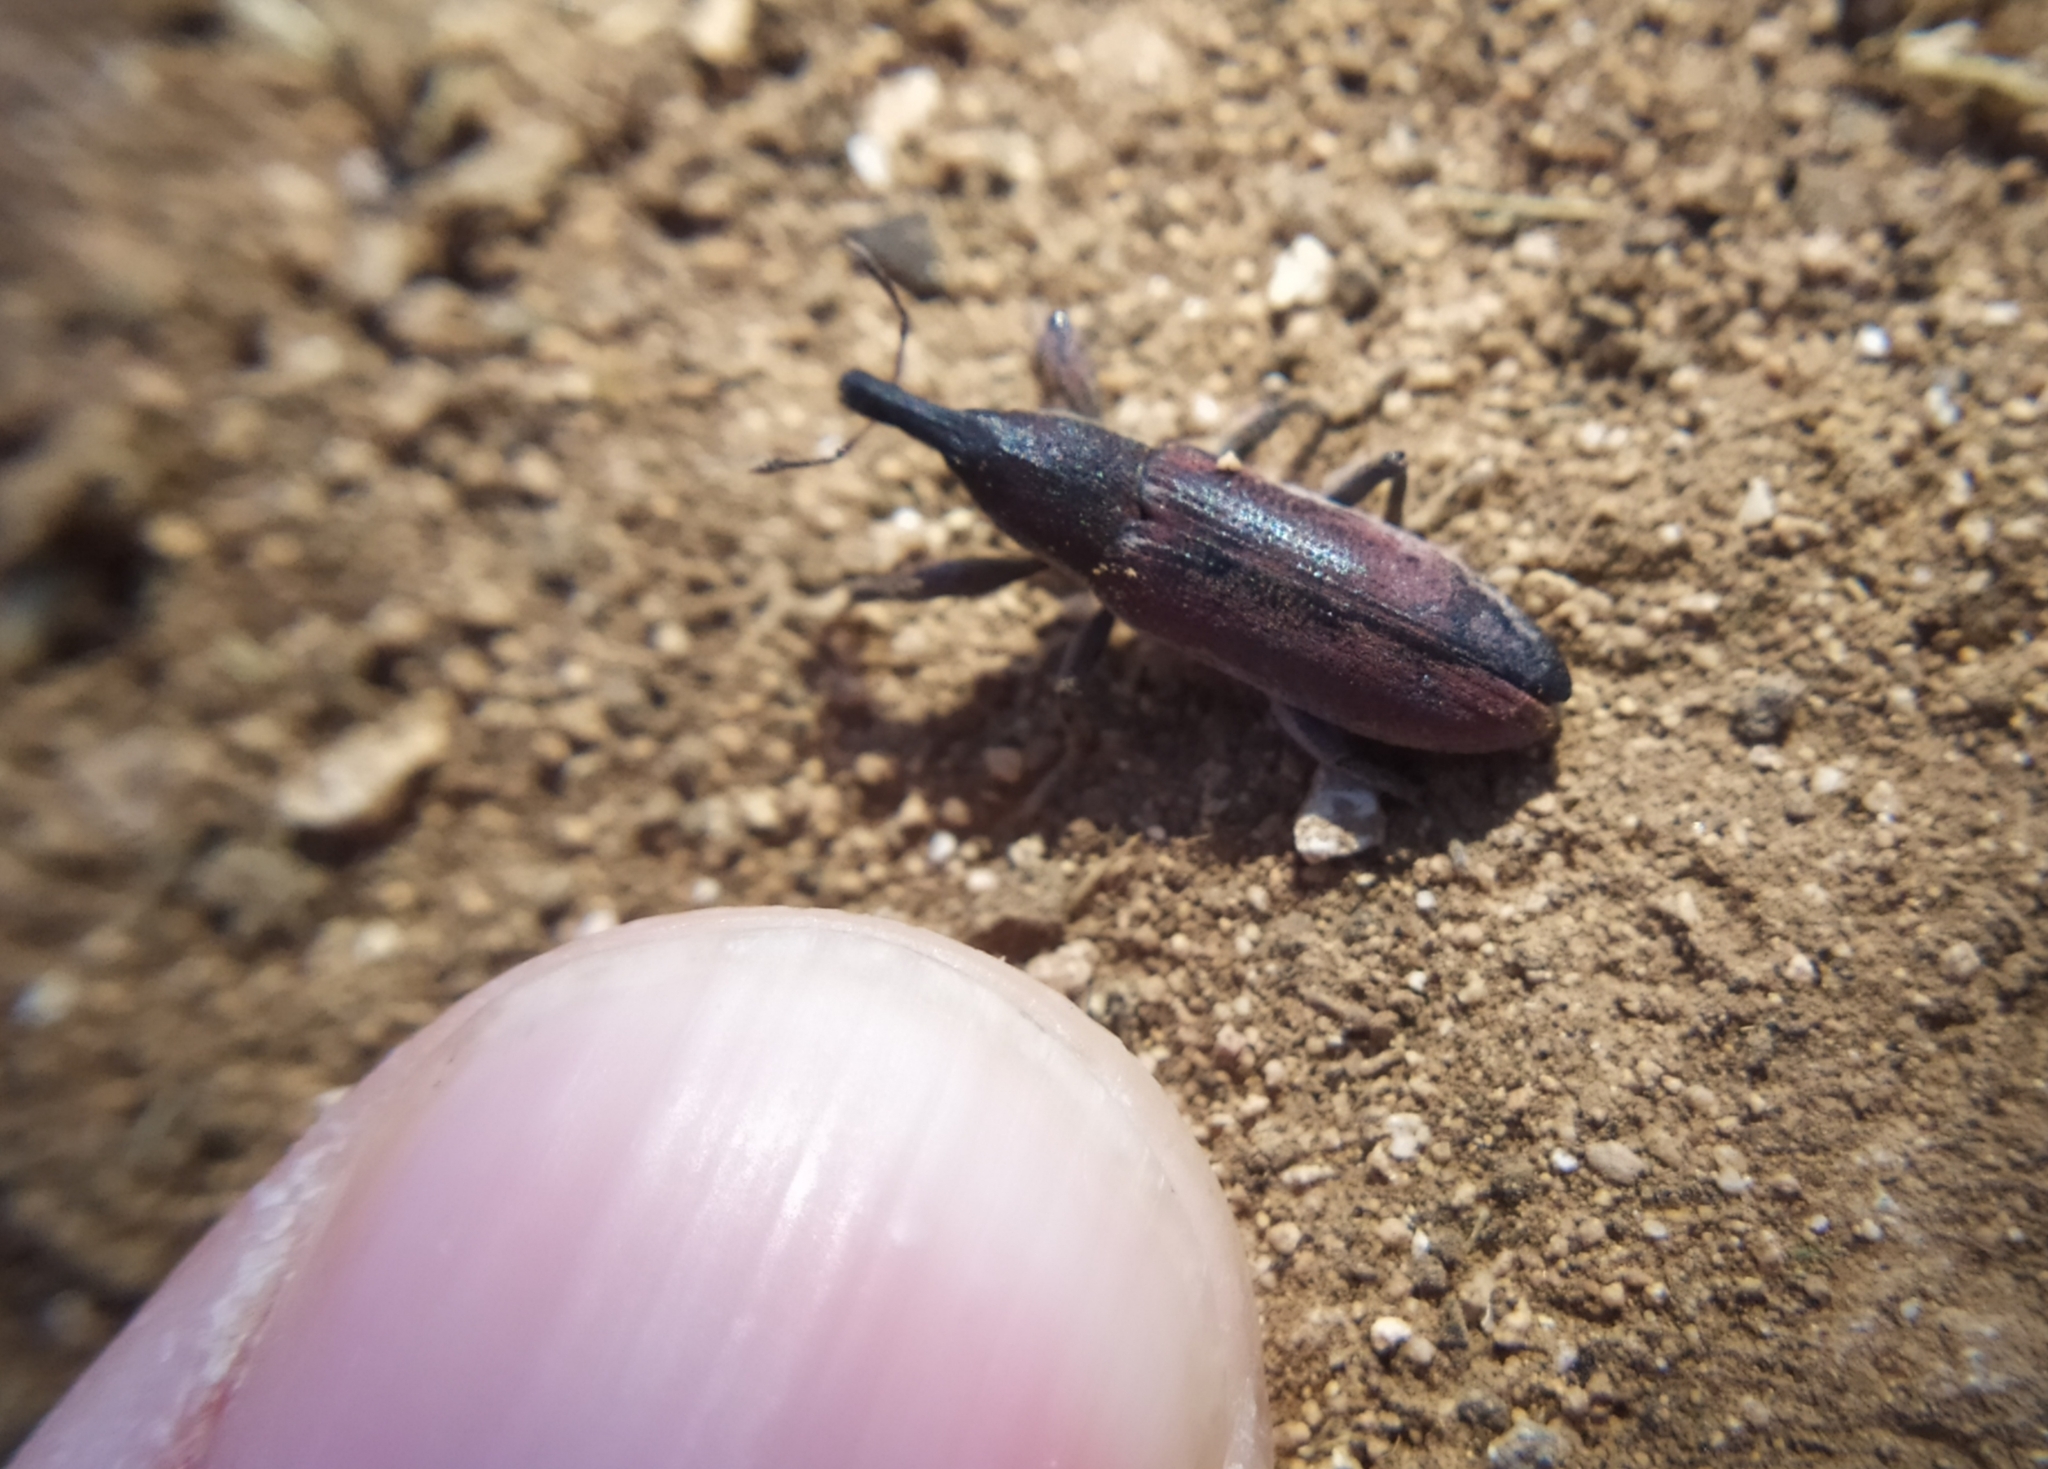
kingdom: Animalia
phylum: Arthropoda
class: Insecta
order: Coleoptera
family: Curculionidae
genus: Lixus
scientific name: Lixus vilis
